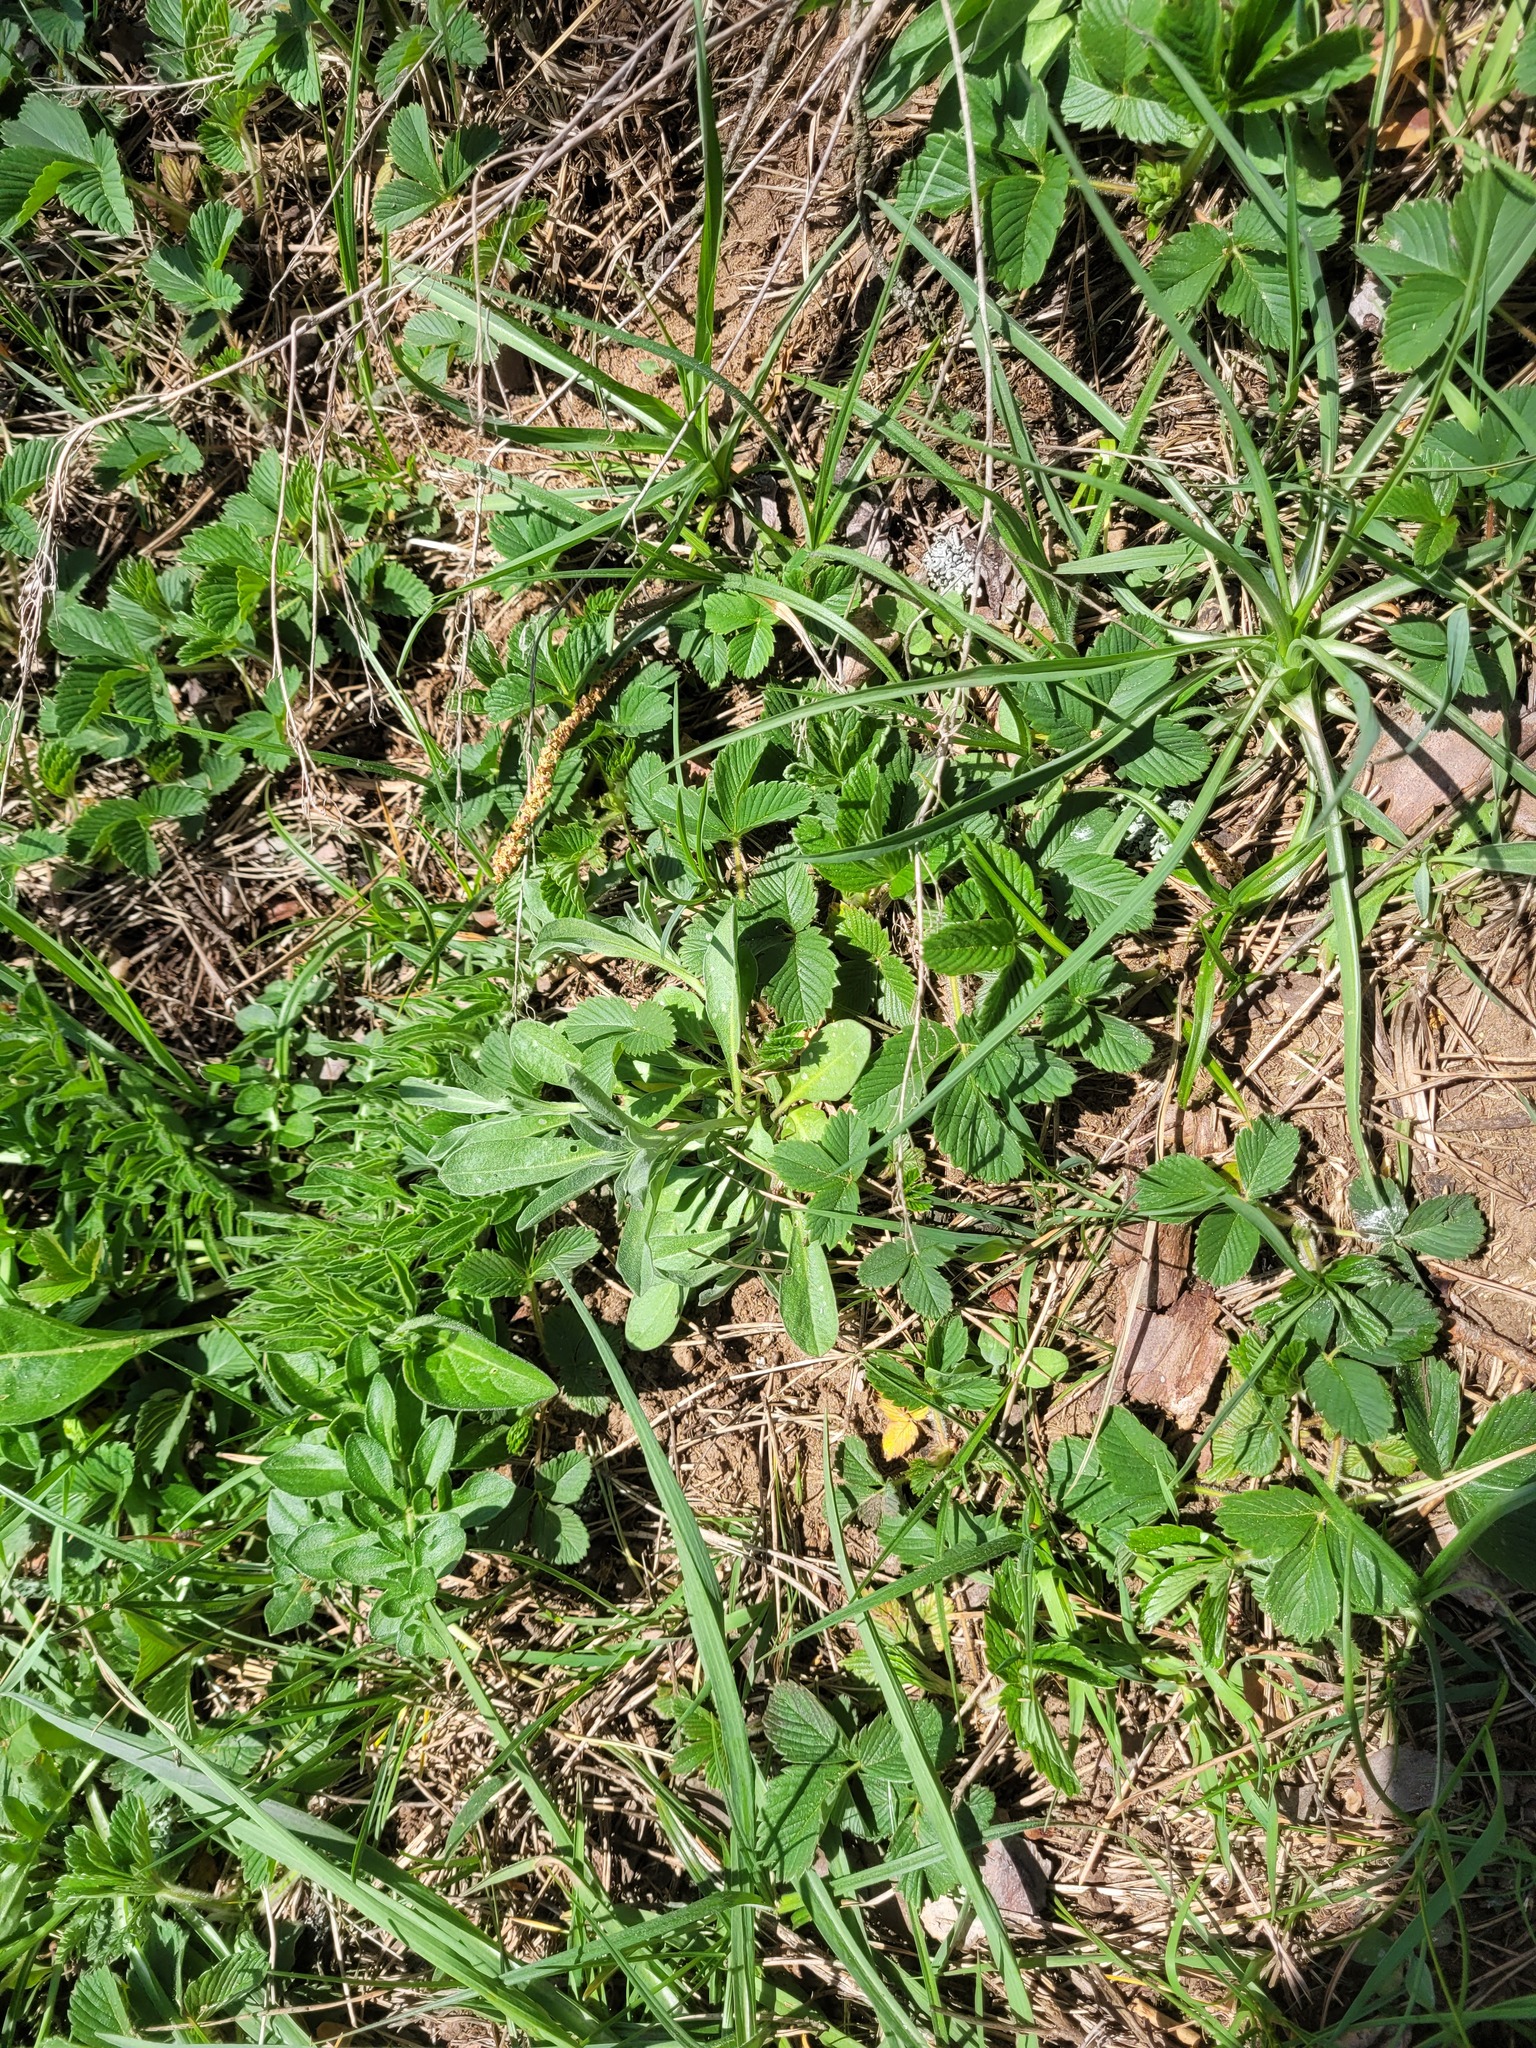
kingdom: Plantae
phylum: Tracheophyta
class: Magnoliopsida
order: Brassicales
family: Brassicaceae
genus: Berteroa
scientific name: Berteroa incana
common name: Hoary alison
